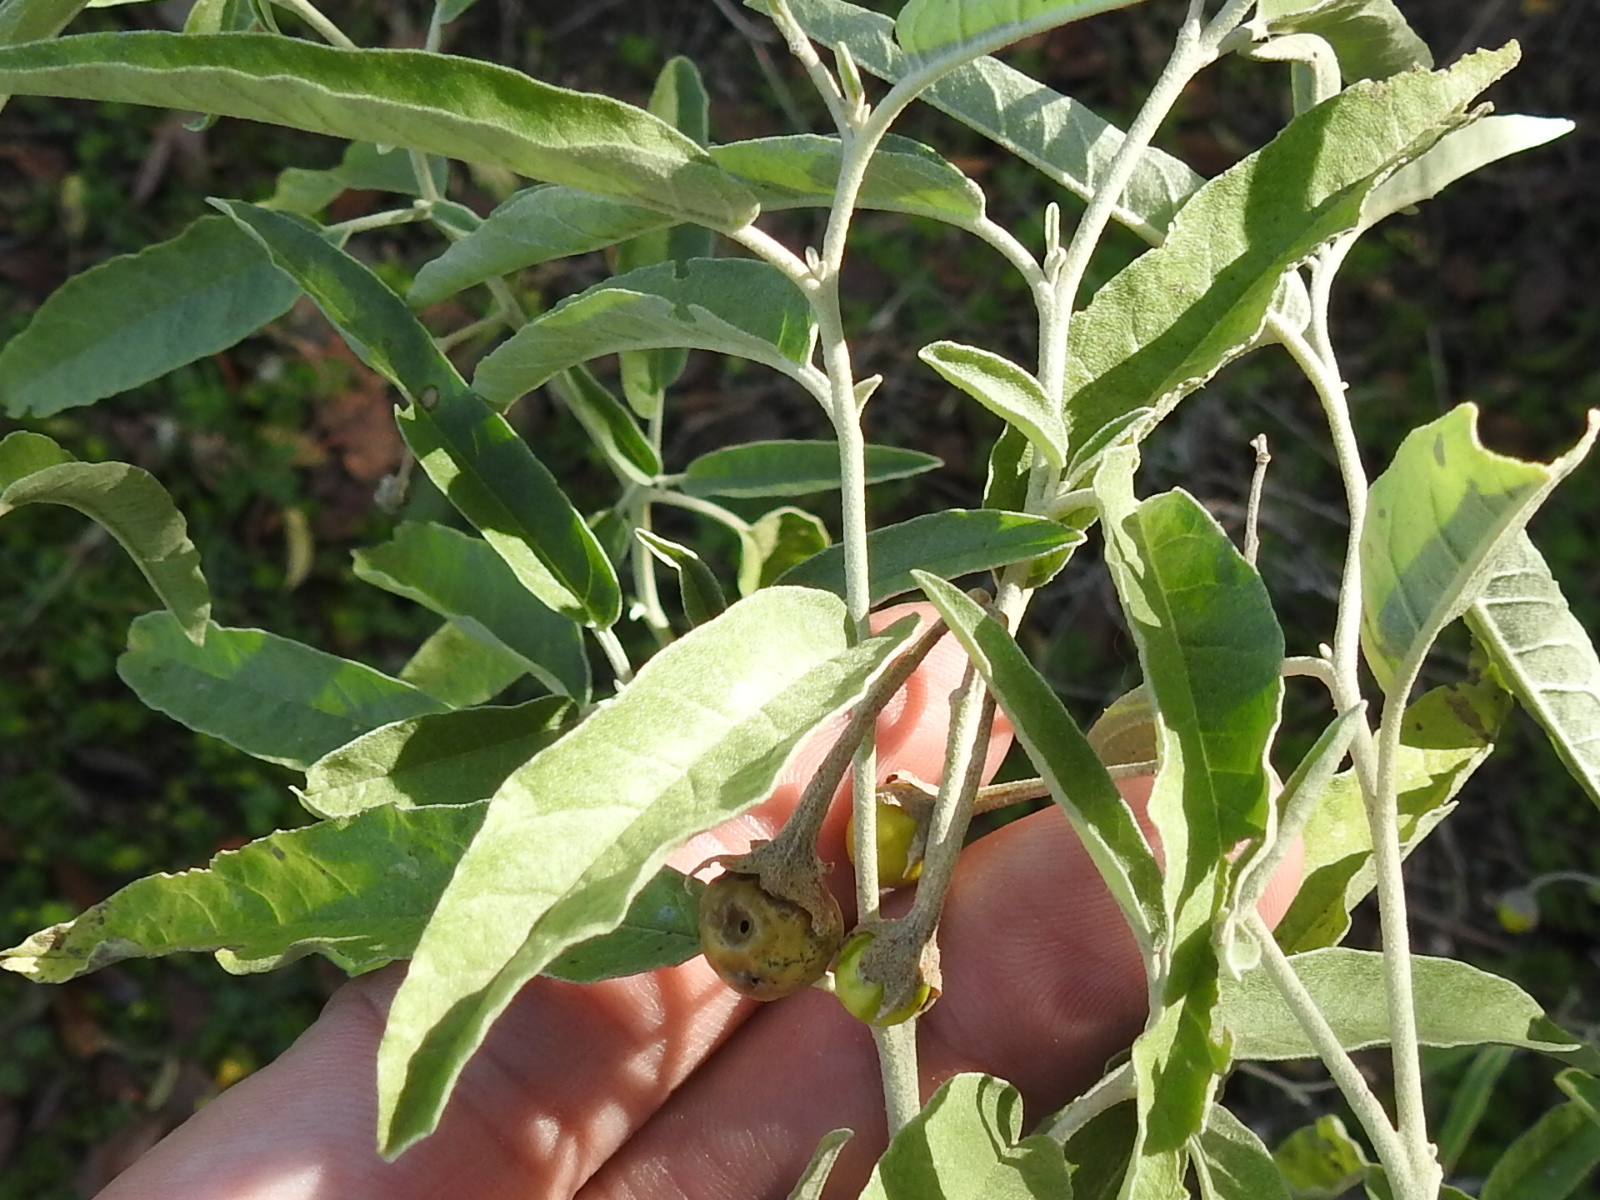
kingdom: Plantae
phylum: Tracheophyta
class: Magnoliopsida
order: Solanales
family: Solanaceae
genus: Solanum
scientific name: Solanum elaeagnifolium
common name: Silverleaf nightshade
